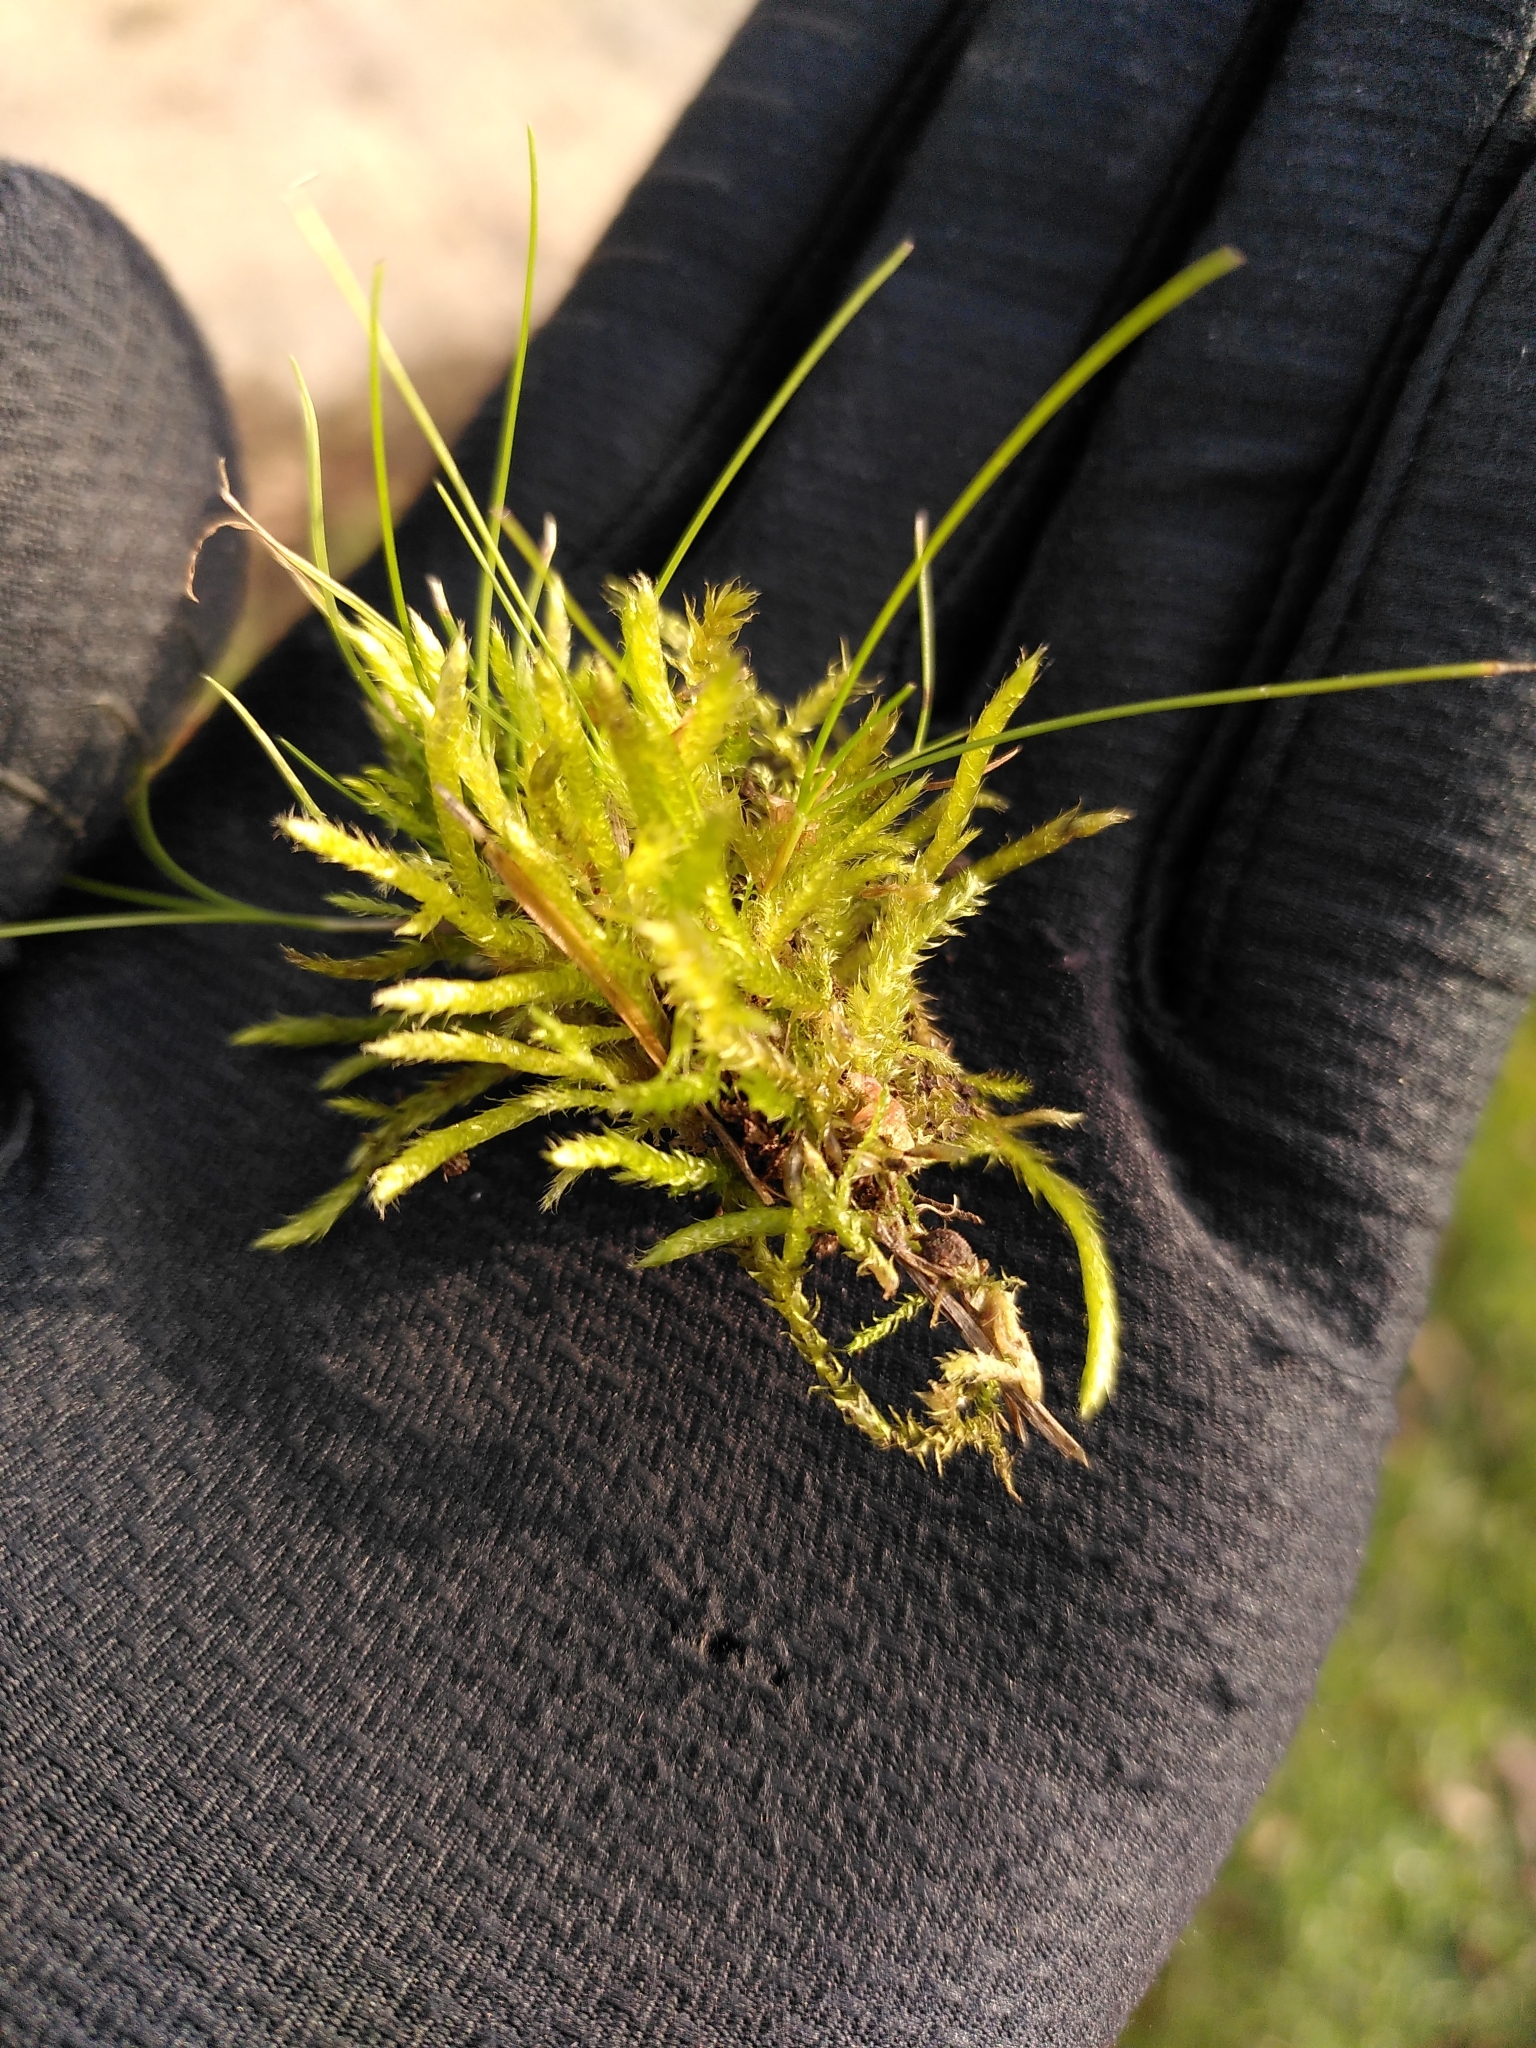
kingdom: Plantae
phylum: Bryophyta
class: Bryopsida
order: Hypnales
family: Brachytheciaceae
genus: Brachythecium
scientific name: Brachythecium albicans
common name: Whitish ragged moss
